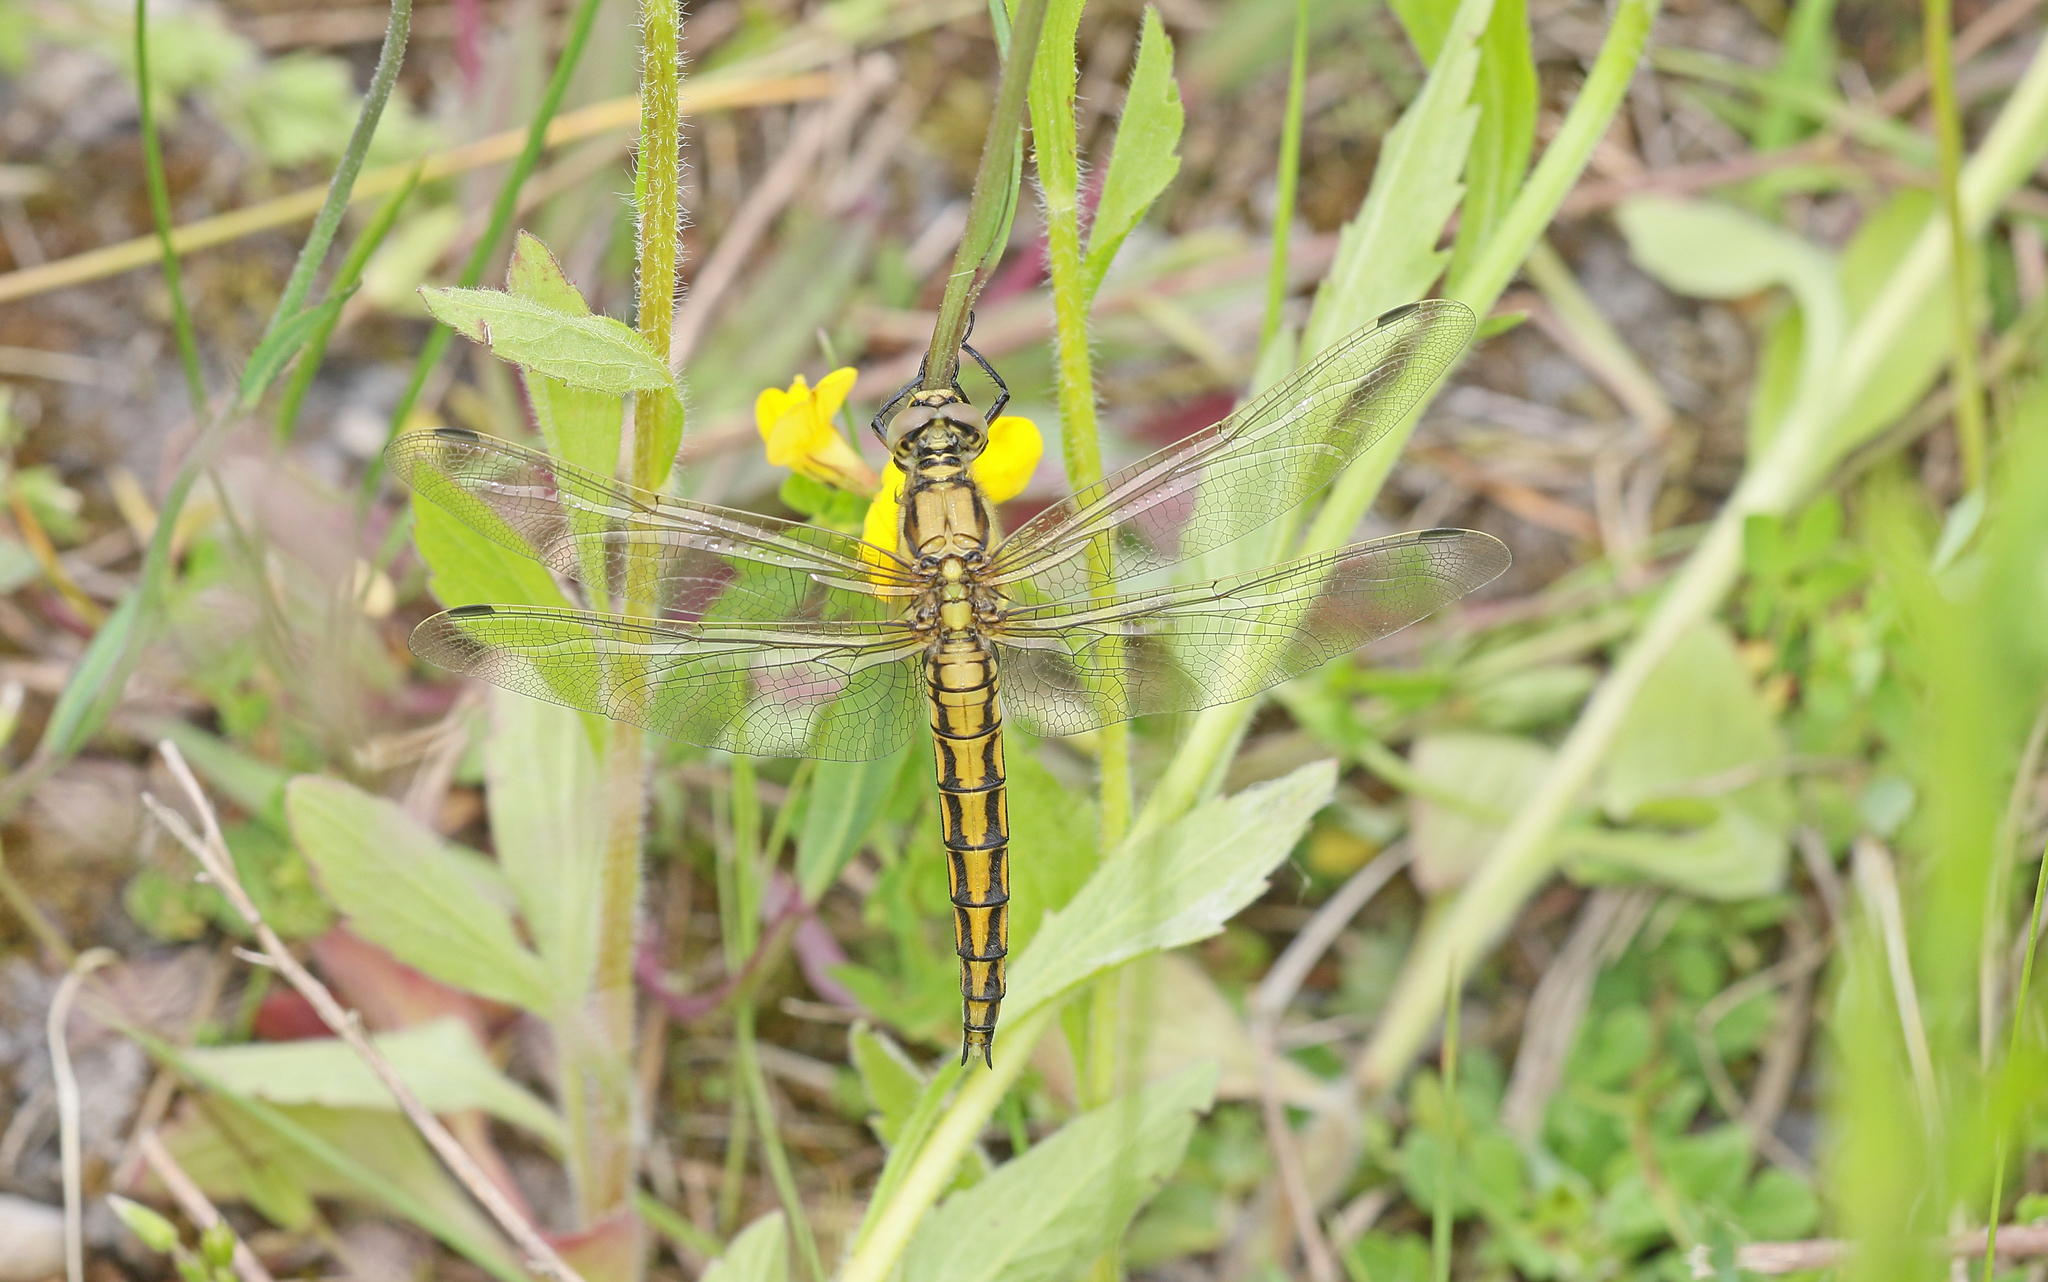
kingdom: Animalia
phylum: Arthropoda
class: Insecta
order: Odonata
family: Libellulidae
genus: Orthetrum
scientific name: Orthetrum cancellatum
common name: Black-tailed skimmer
